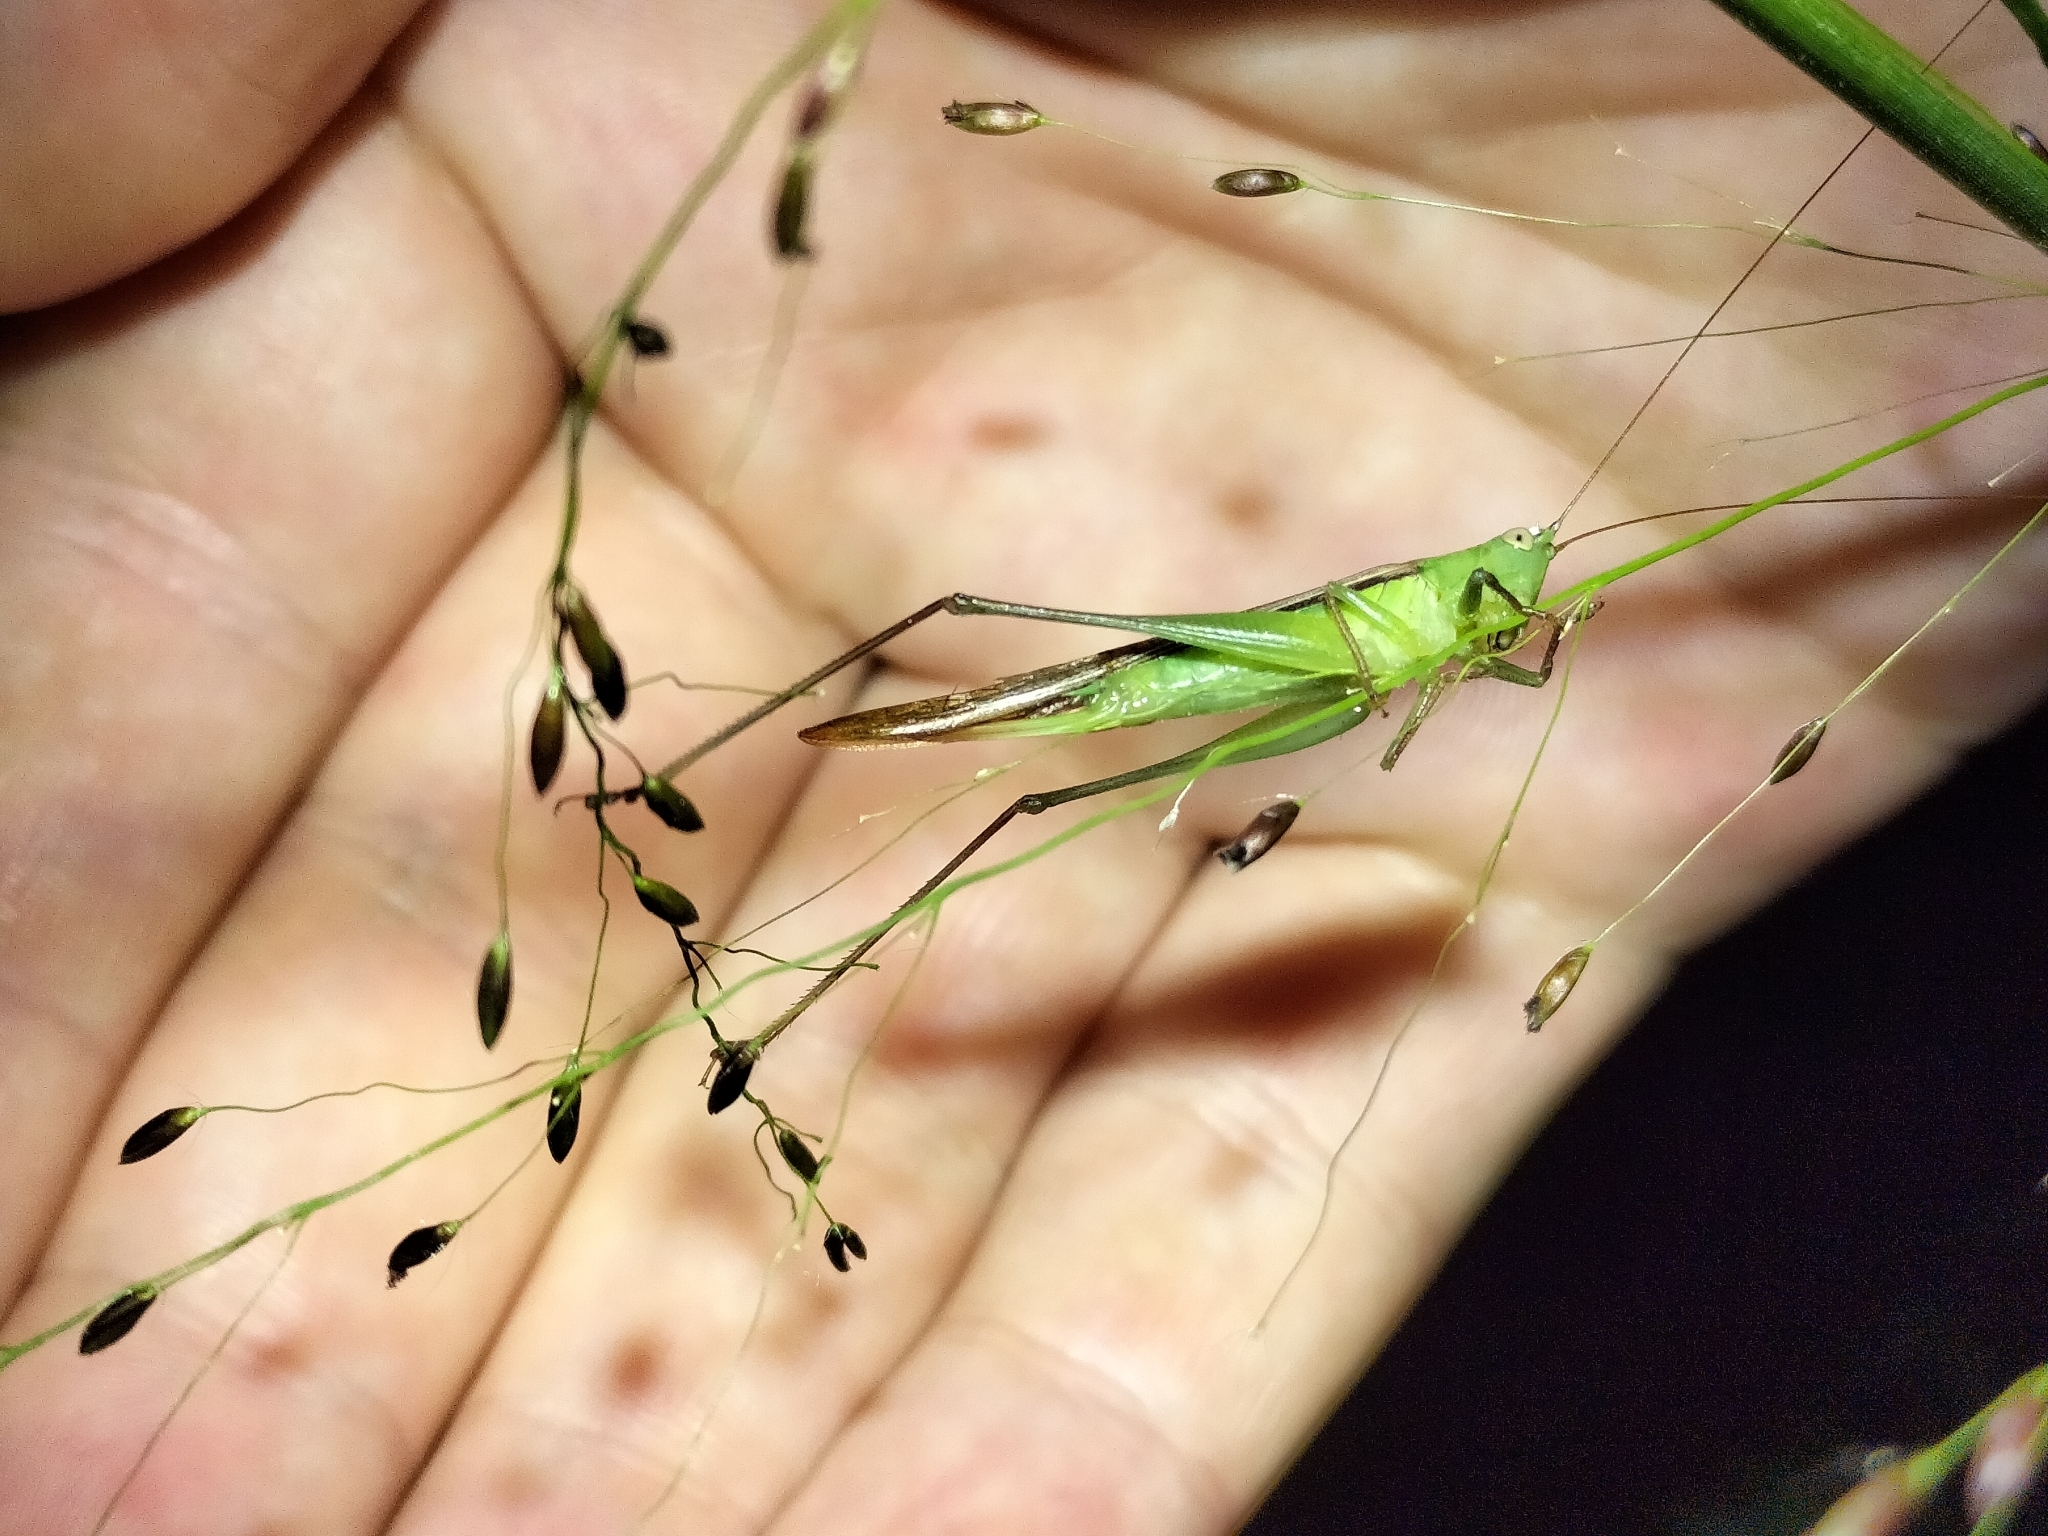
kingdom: Animalia
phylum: Arthropoda
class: Insecta
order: Orthoptera
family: Tettigoniidae
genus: Conocephalus
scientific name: Conocephalus upoluensis
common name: Upolu meadow katydid
